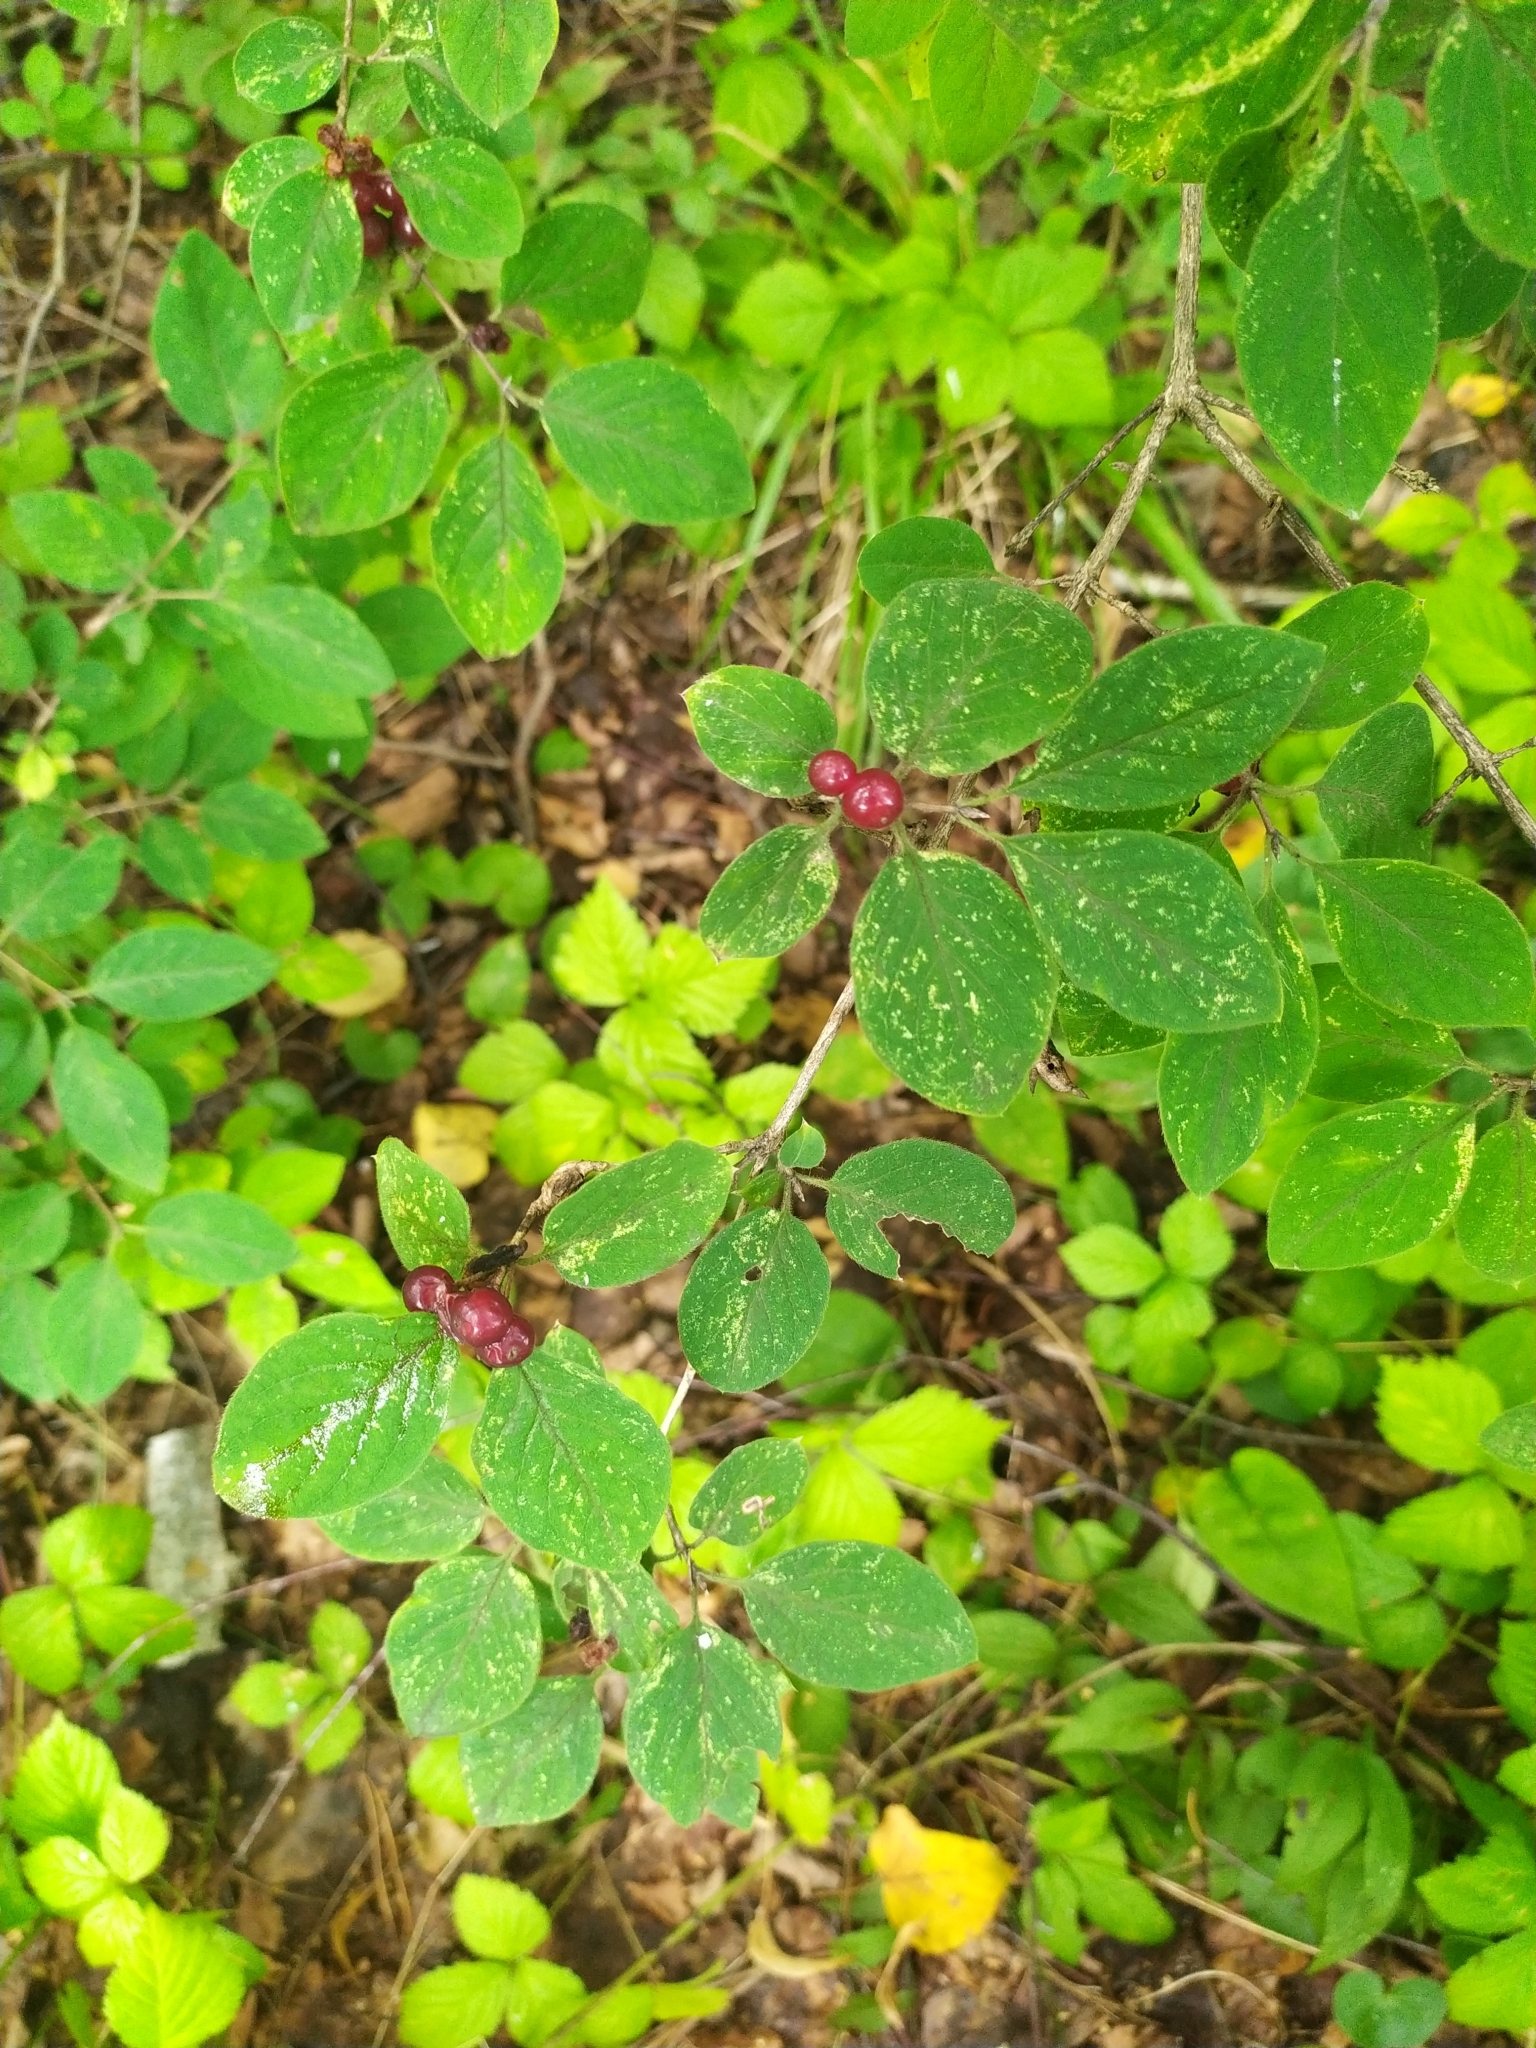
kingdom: Plantae
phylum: Tracheophyta
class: Magnoliopsida
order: Dipsacales
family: Caprifoliaceae
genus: Lonicera
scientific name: Lonicera xylosteum
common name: Fly honeysuckle
